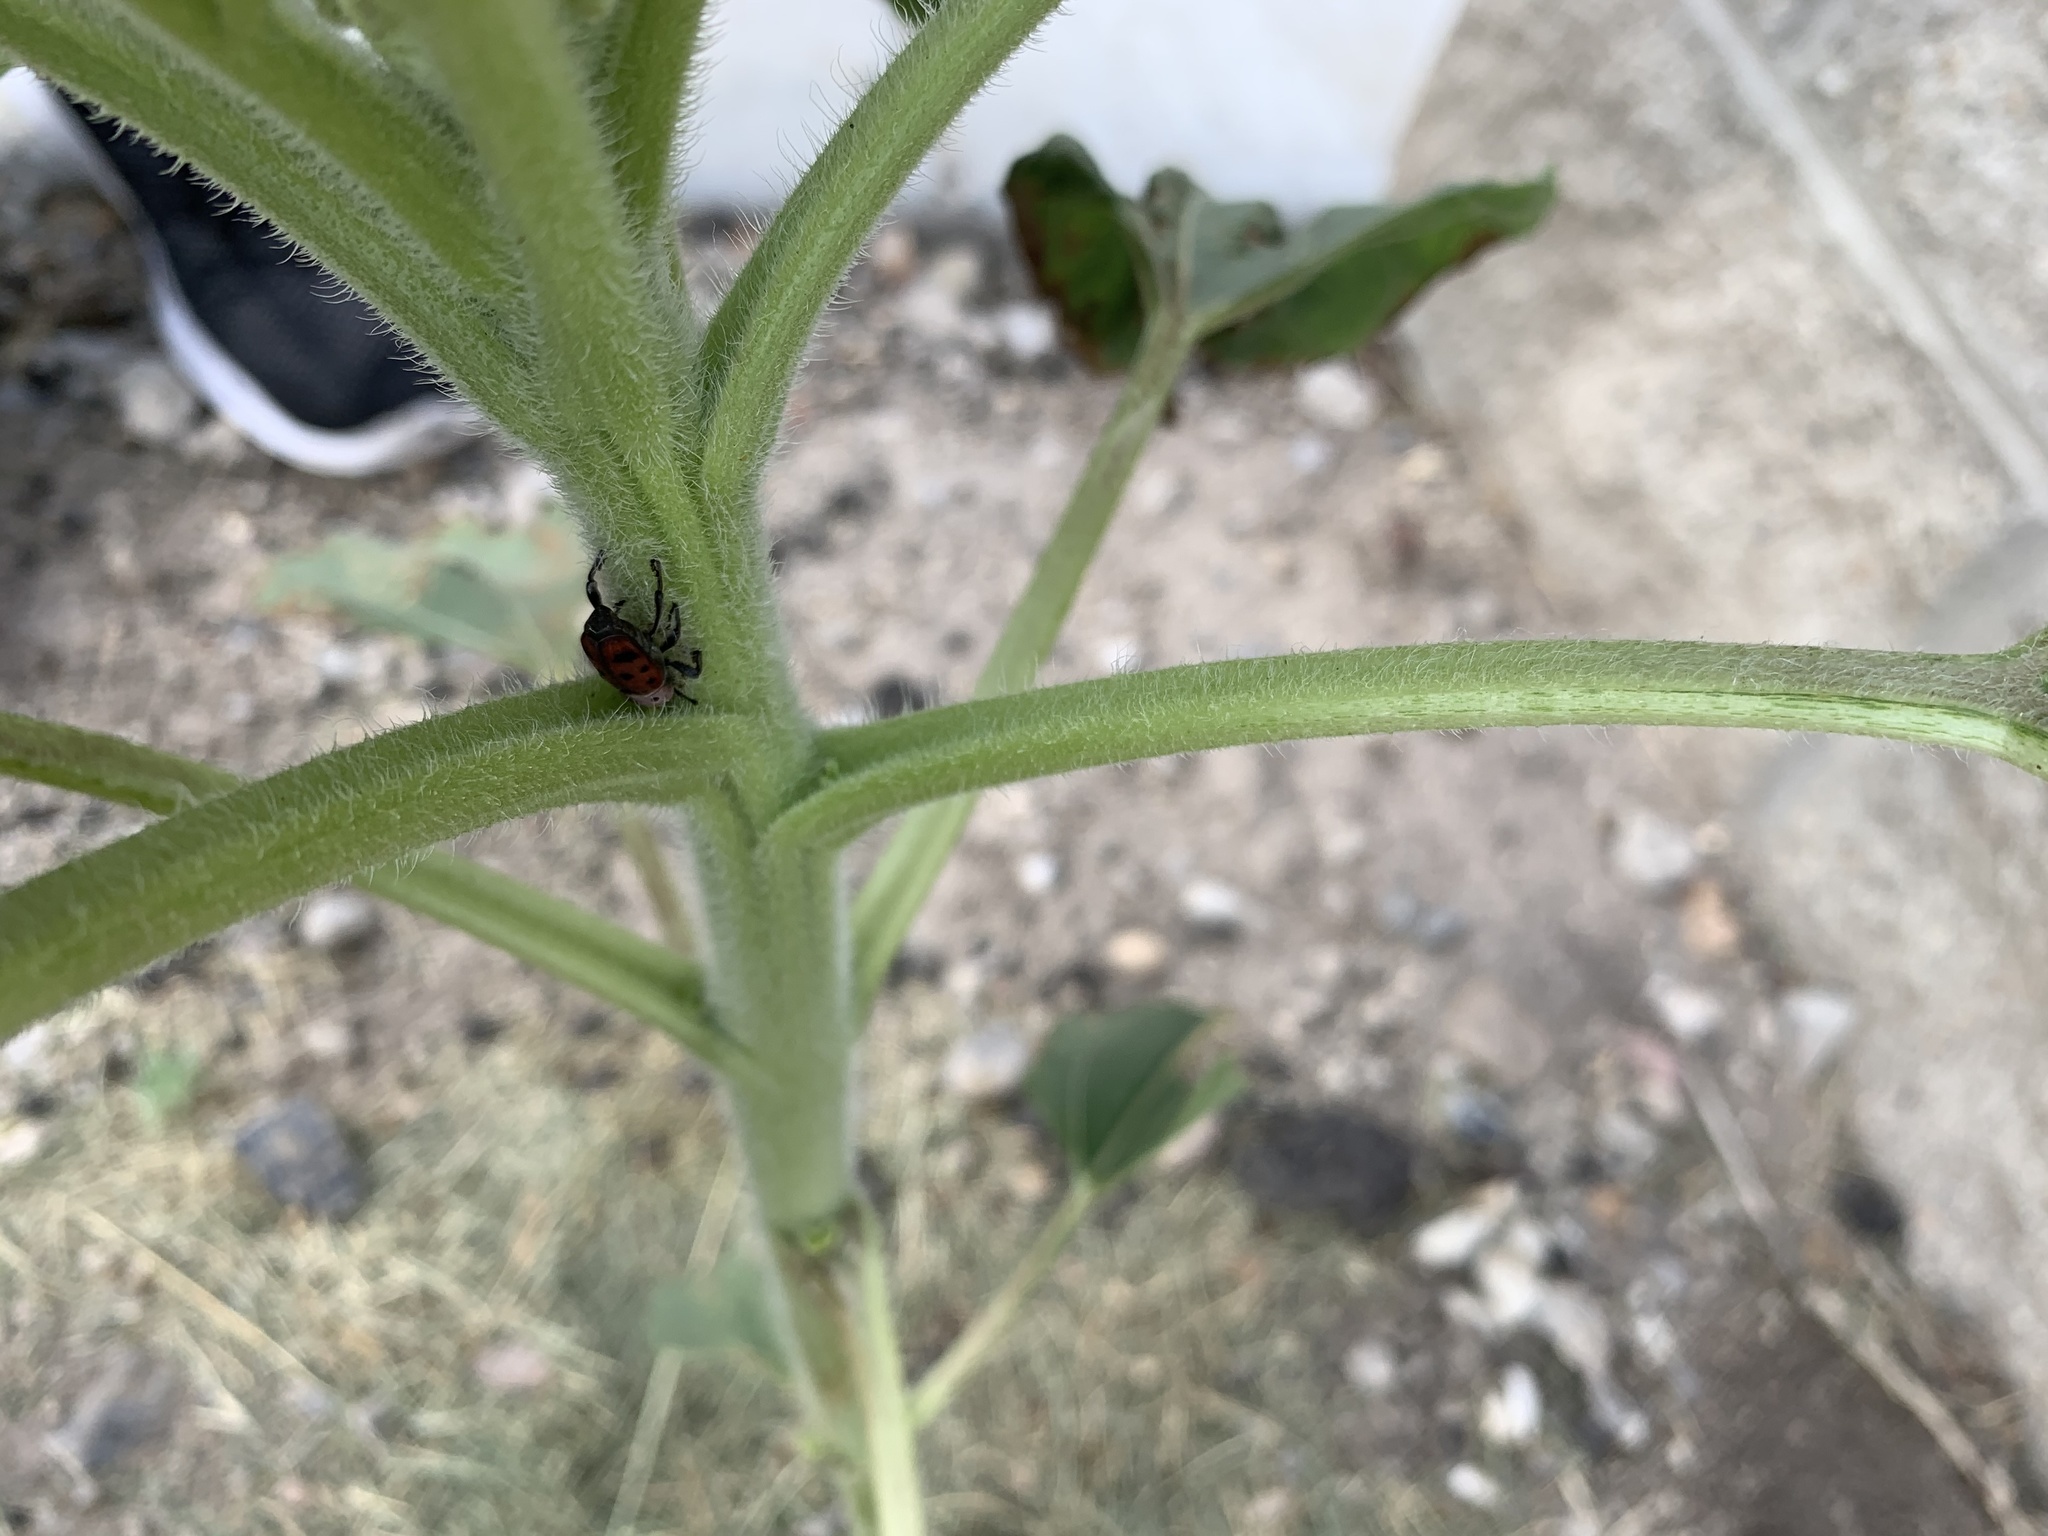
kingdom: Animalia
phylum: Arthropoda
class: Insecta
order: Coleoptera
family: Dryophthoridae
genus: Rhodobaenus
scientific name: Rhodobaenus tredecimpunctatus
